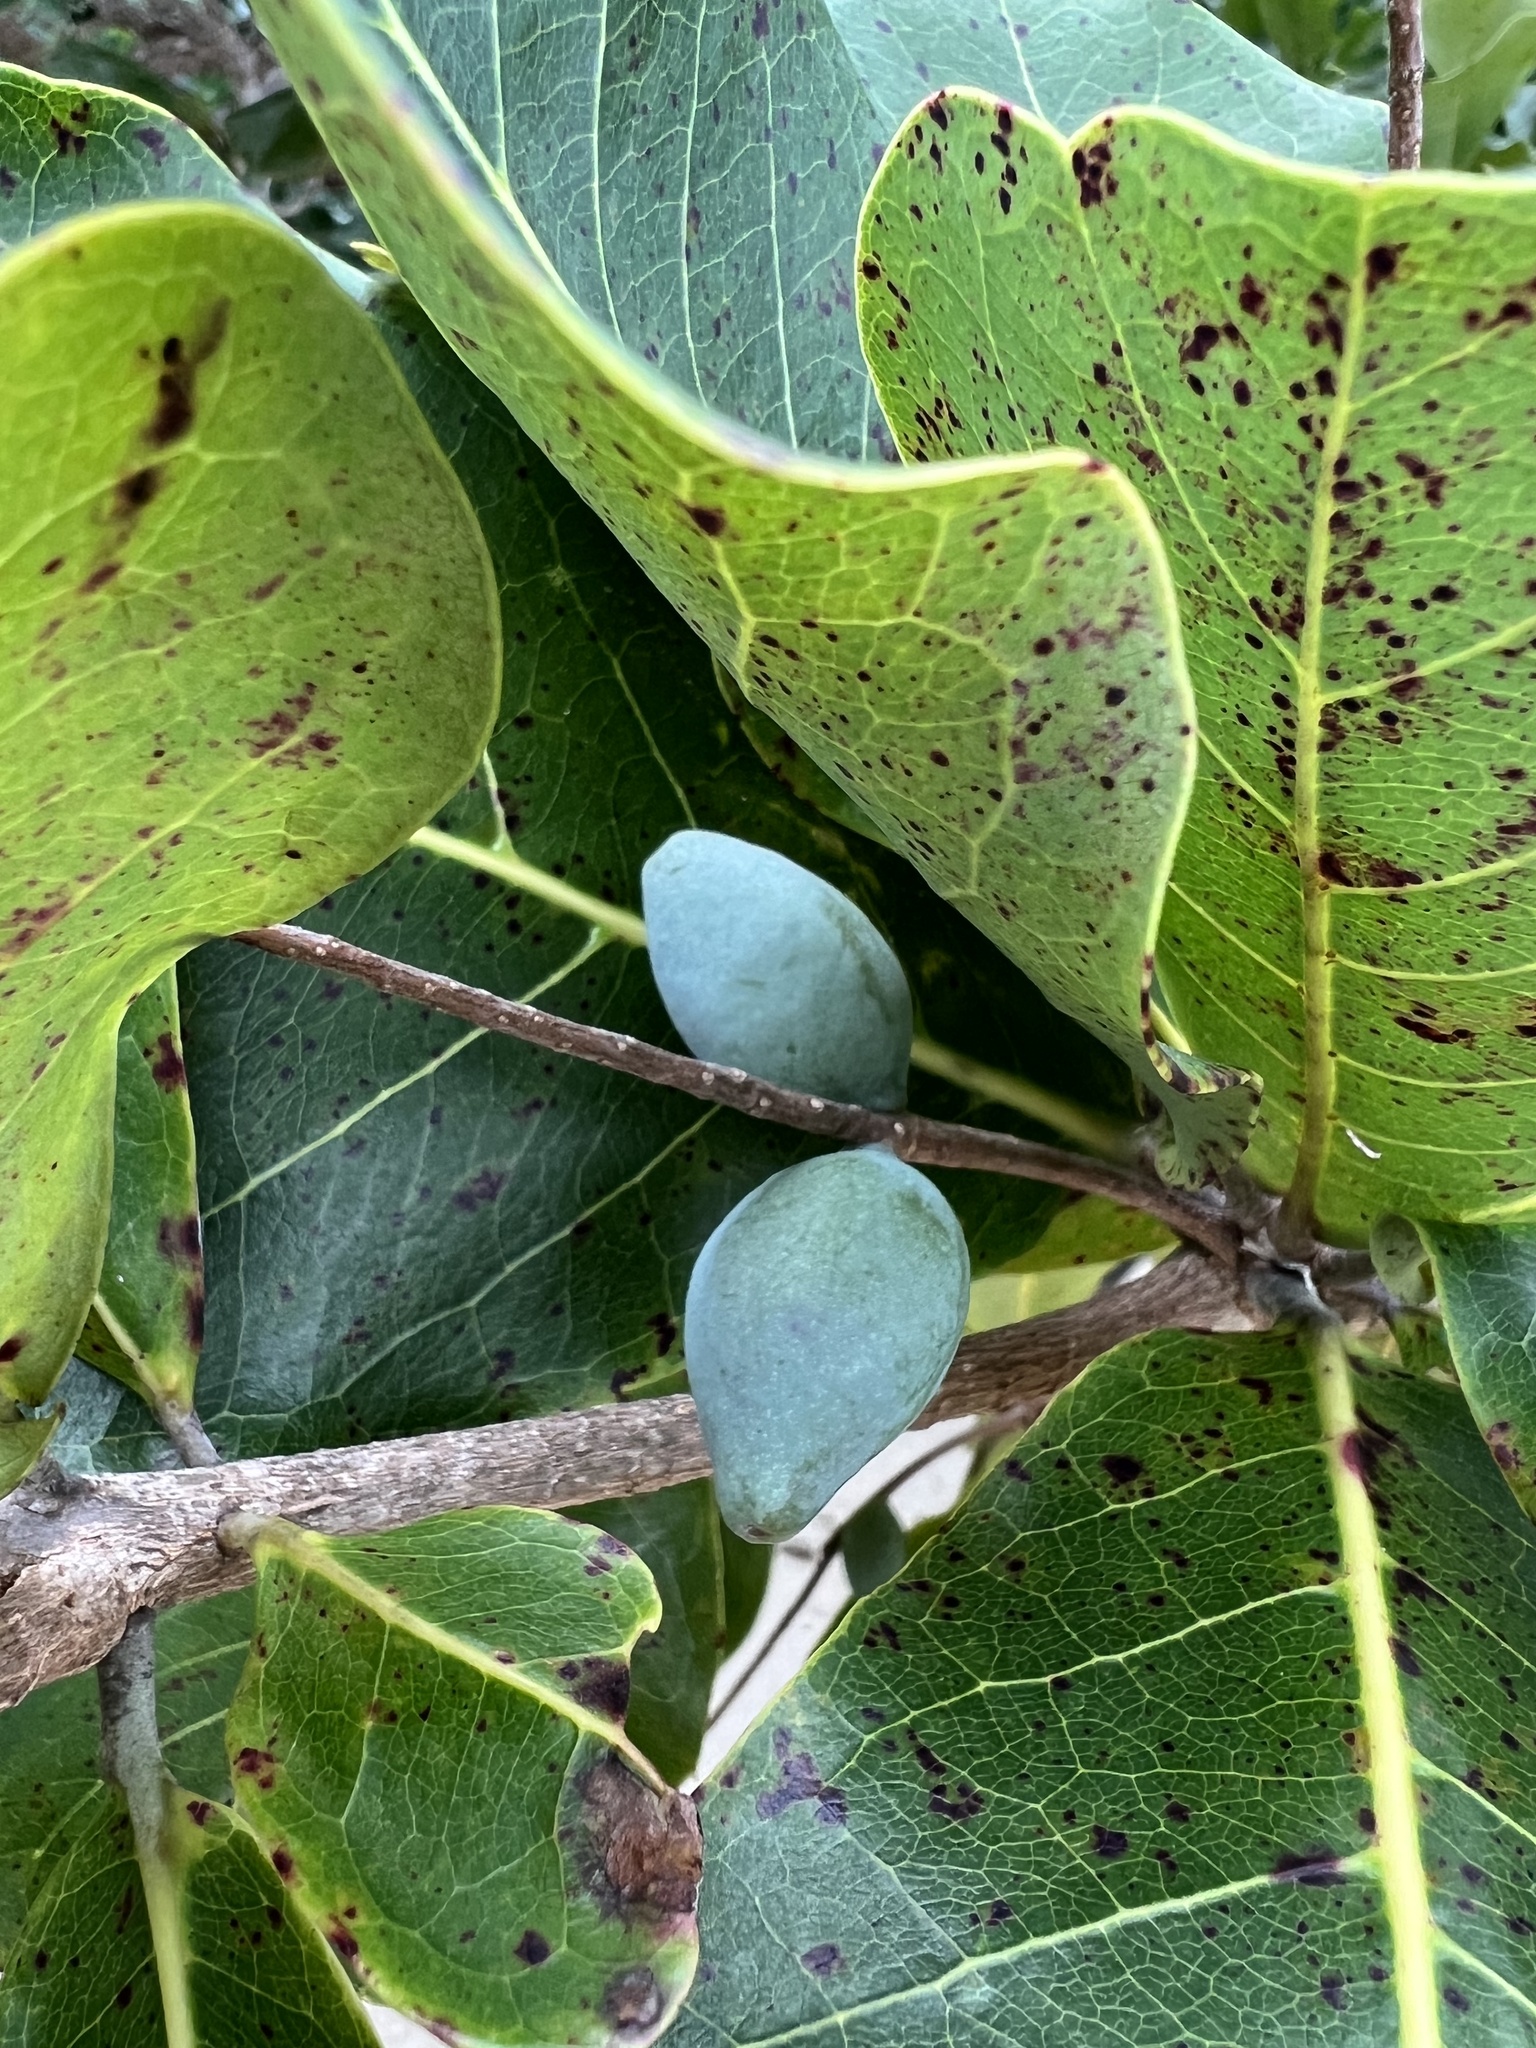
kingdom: Plantae
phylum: Tracheophyta
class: Magnoliopsida
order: Myrtales
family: Combretaceae
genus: Terminalia
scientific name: Terminalia arenicola
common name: Brown damson
